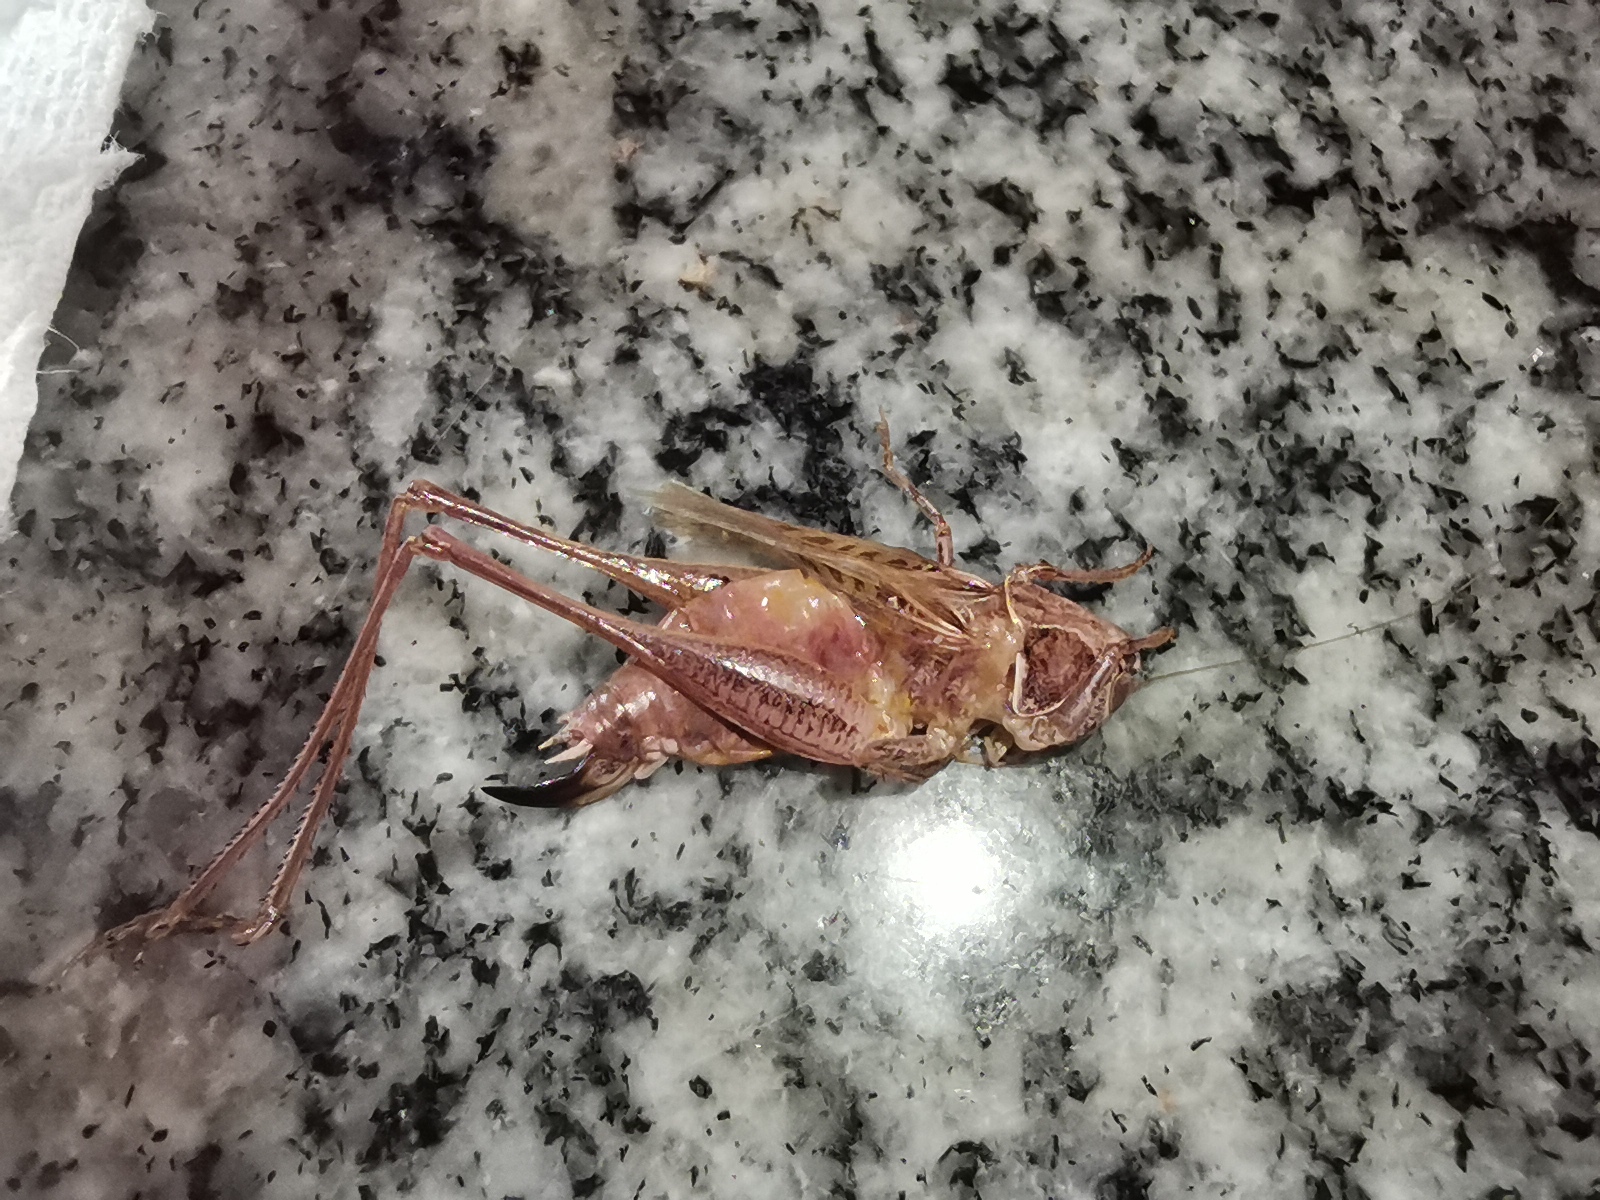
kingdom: Animalia
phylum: Arthropoda
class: Insecta
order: Orthoptera
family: Tettigoniidae
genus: Tessellana
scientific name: Tessellana tessellata
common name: Grasshopper
